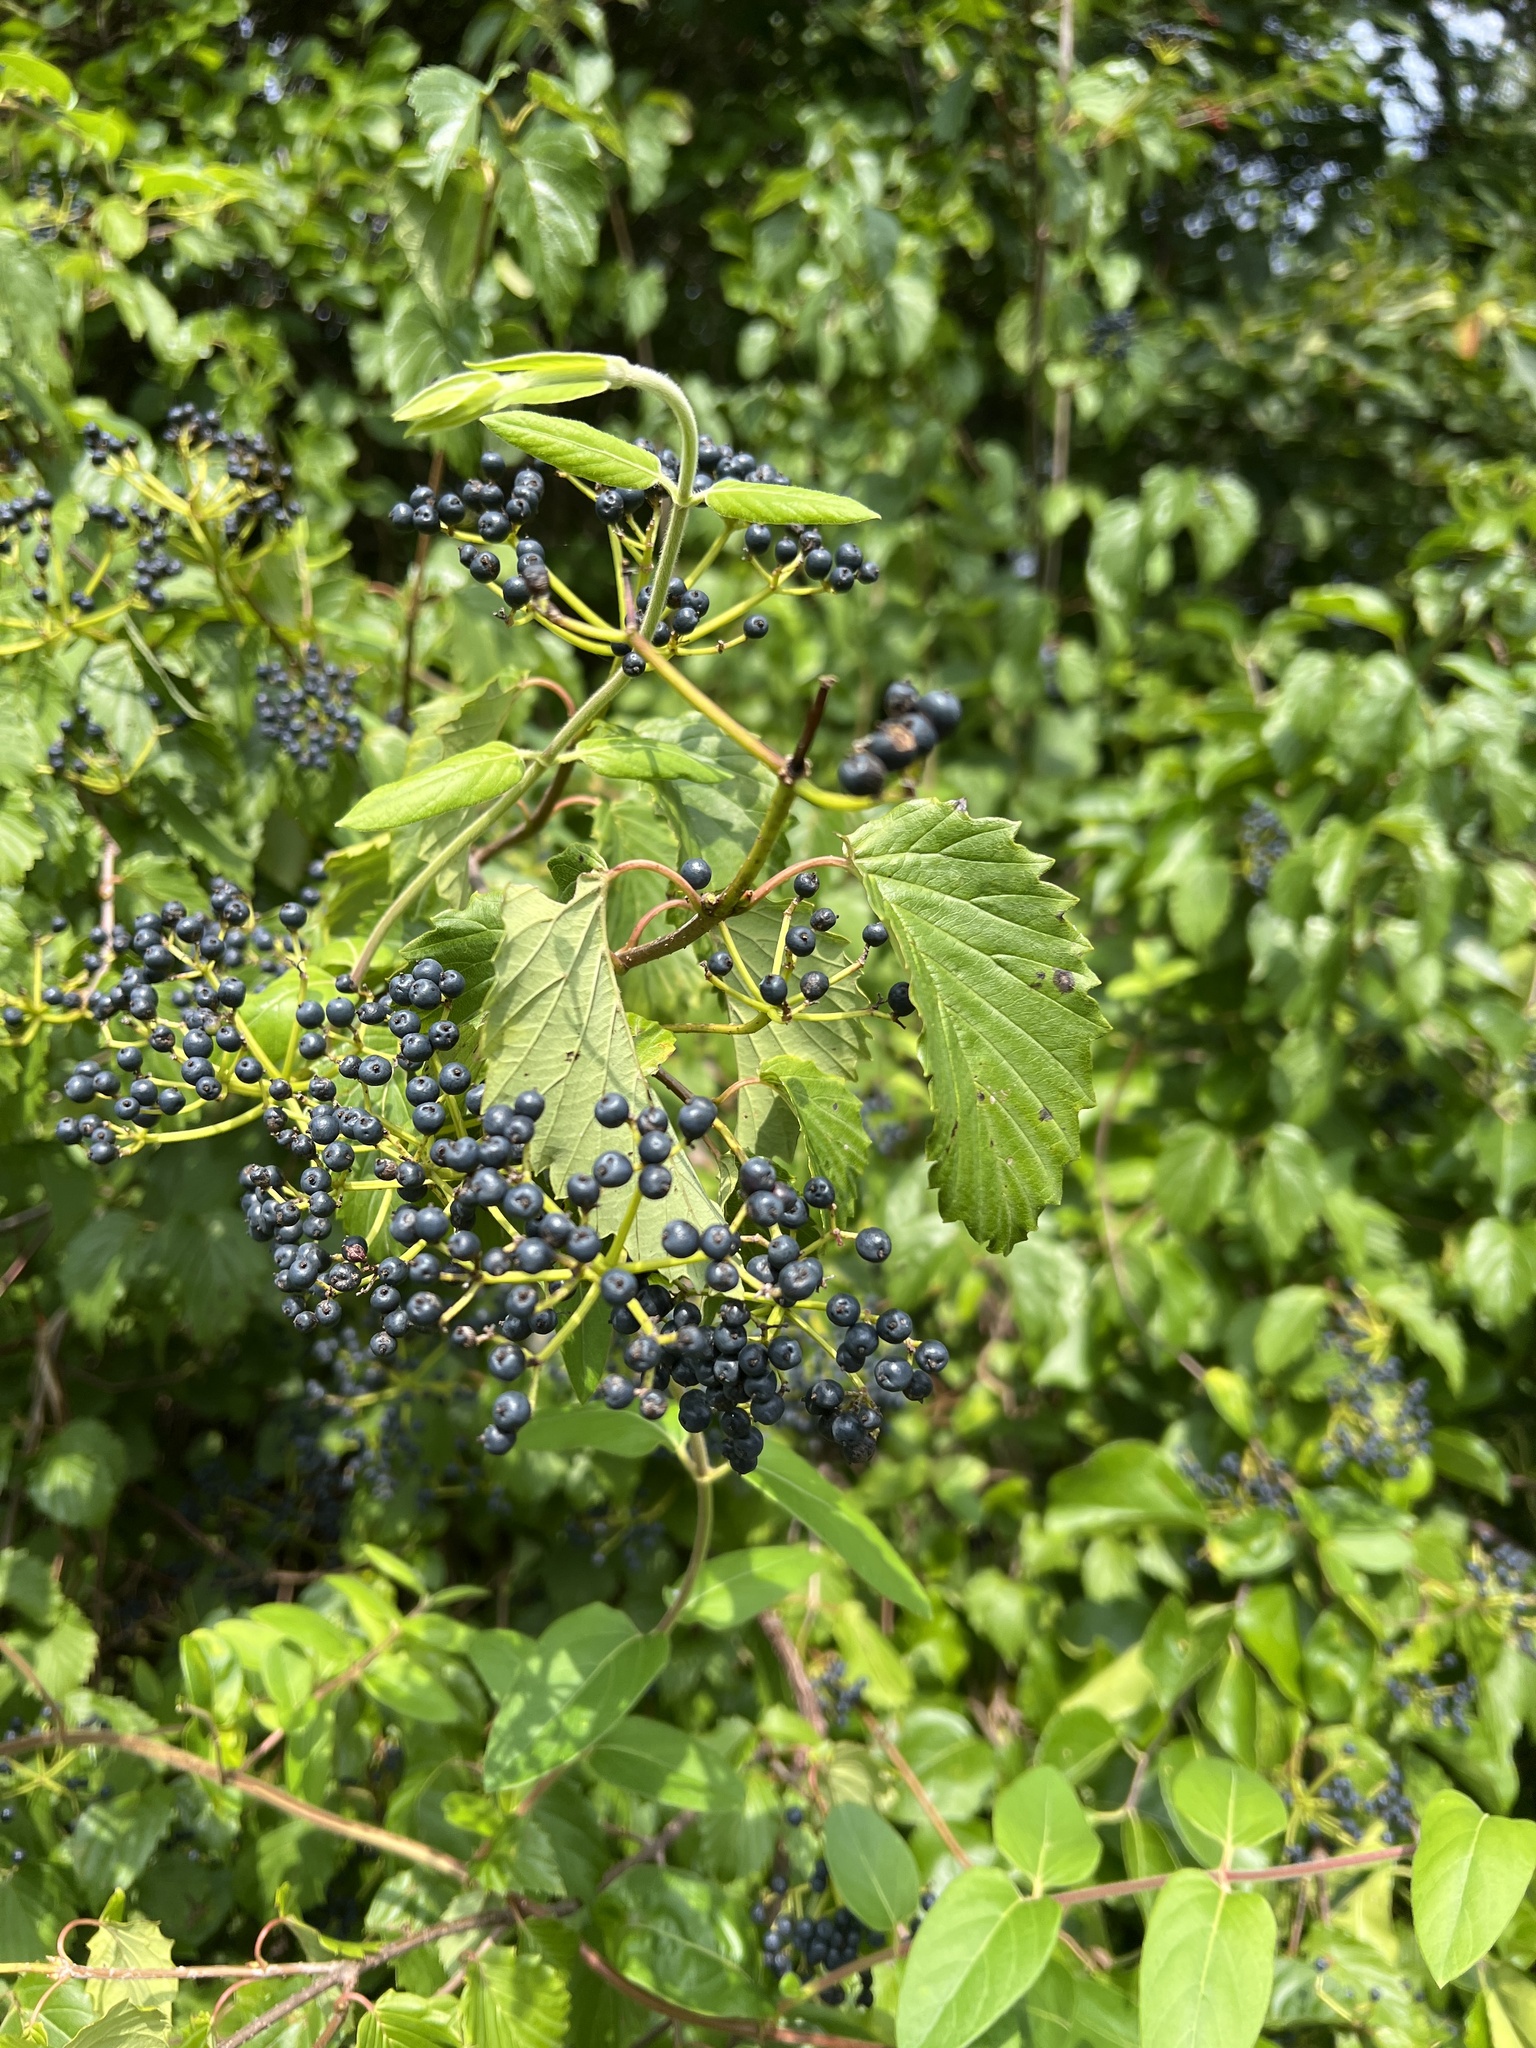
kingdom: Plantae
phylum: Tracheophyta
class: Magnoliopsida
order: Dipsacales
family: Viburnaceae
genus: Viburnum
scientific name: Viburnum dentatum
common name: Arrow-wood
